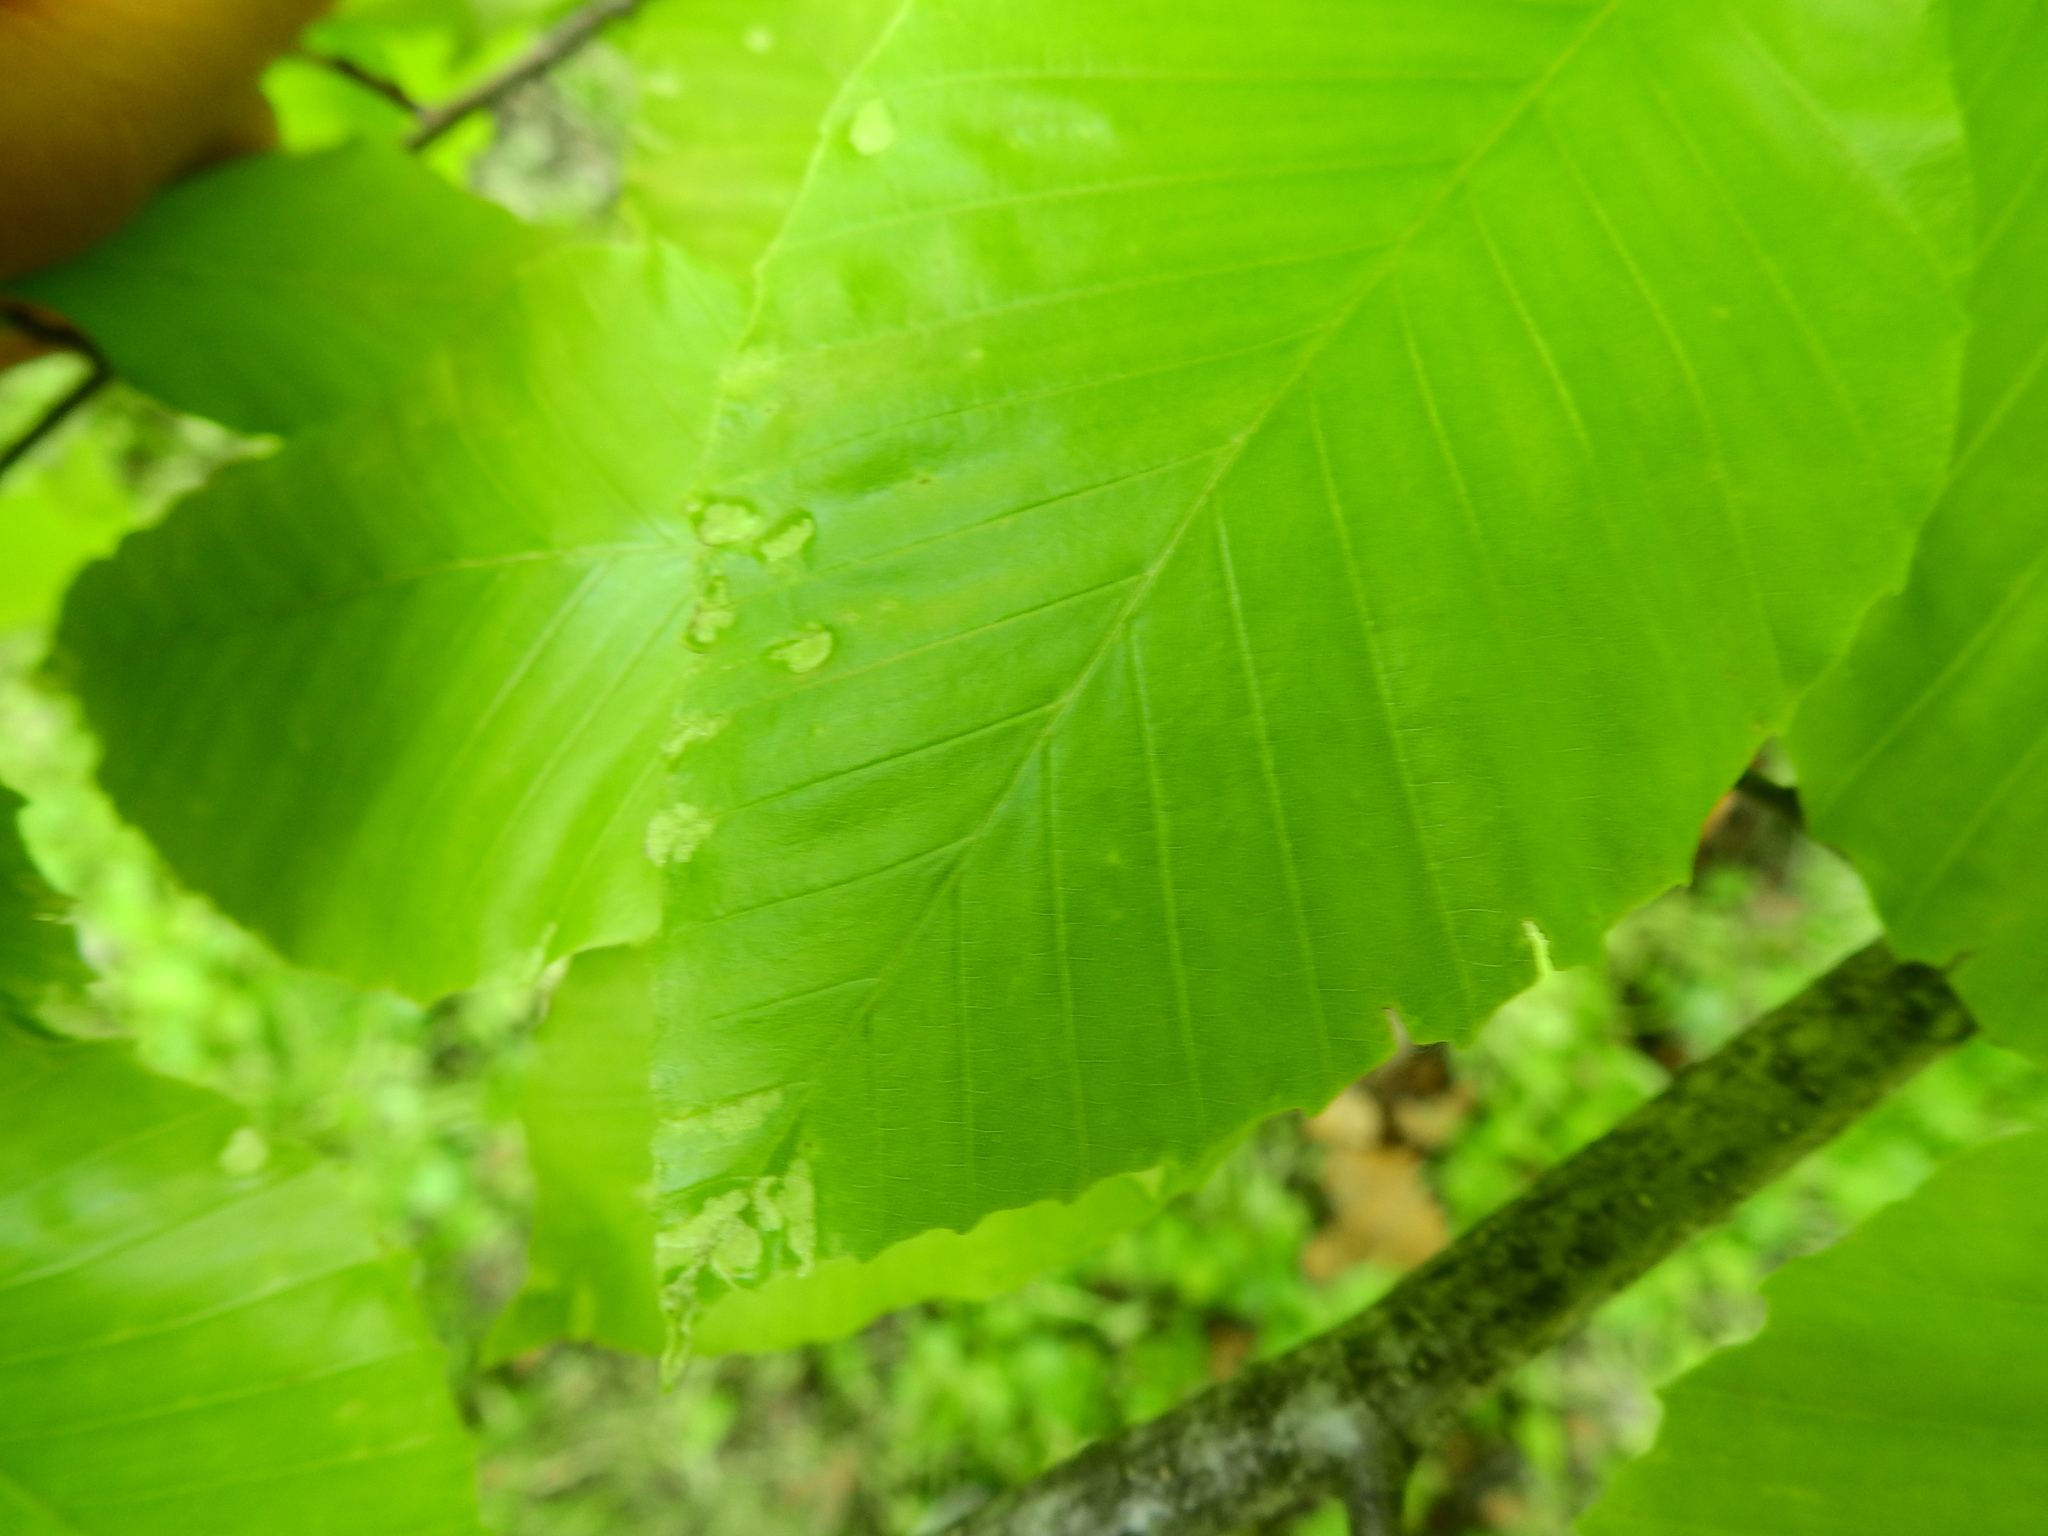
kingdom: Animalia
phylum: Arthropoda
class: Arachnida
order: Trombidiformes
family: Eriophyidae
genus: Acalitus
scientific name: Acalitus
